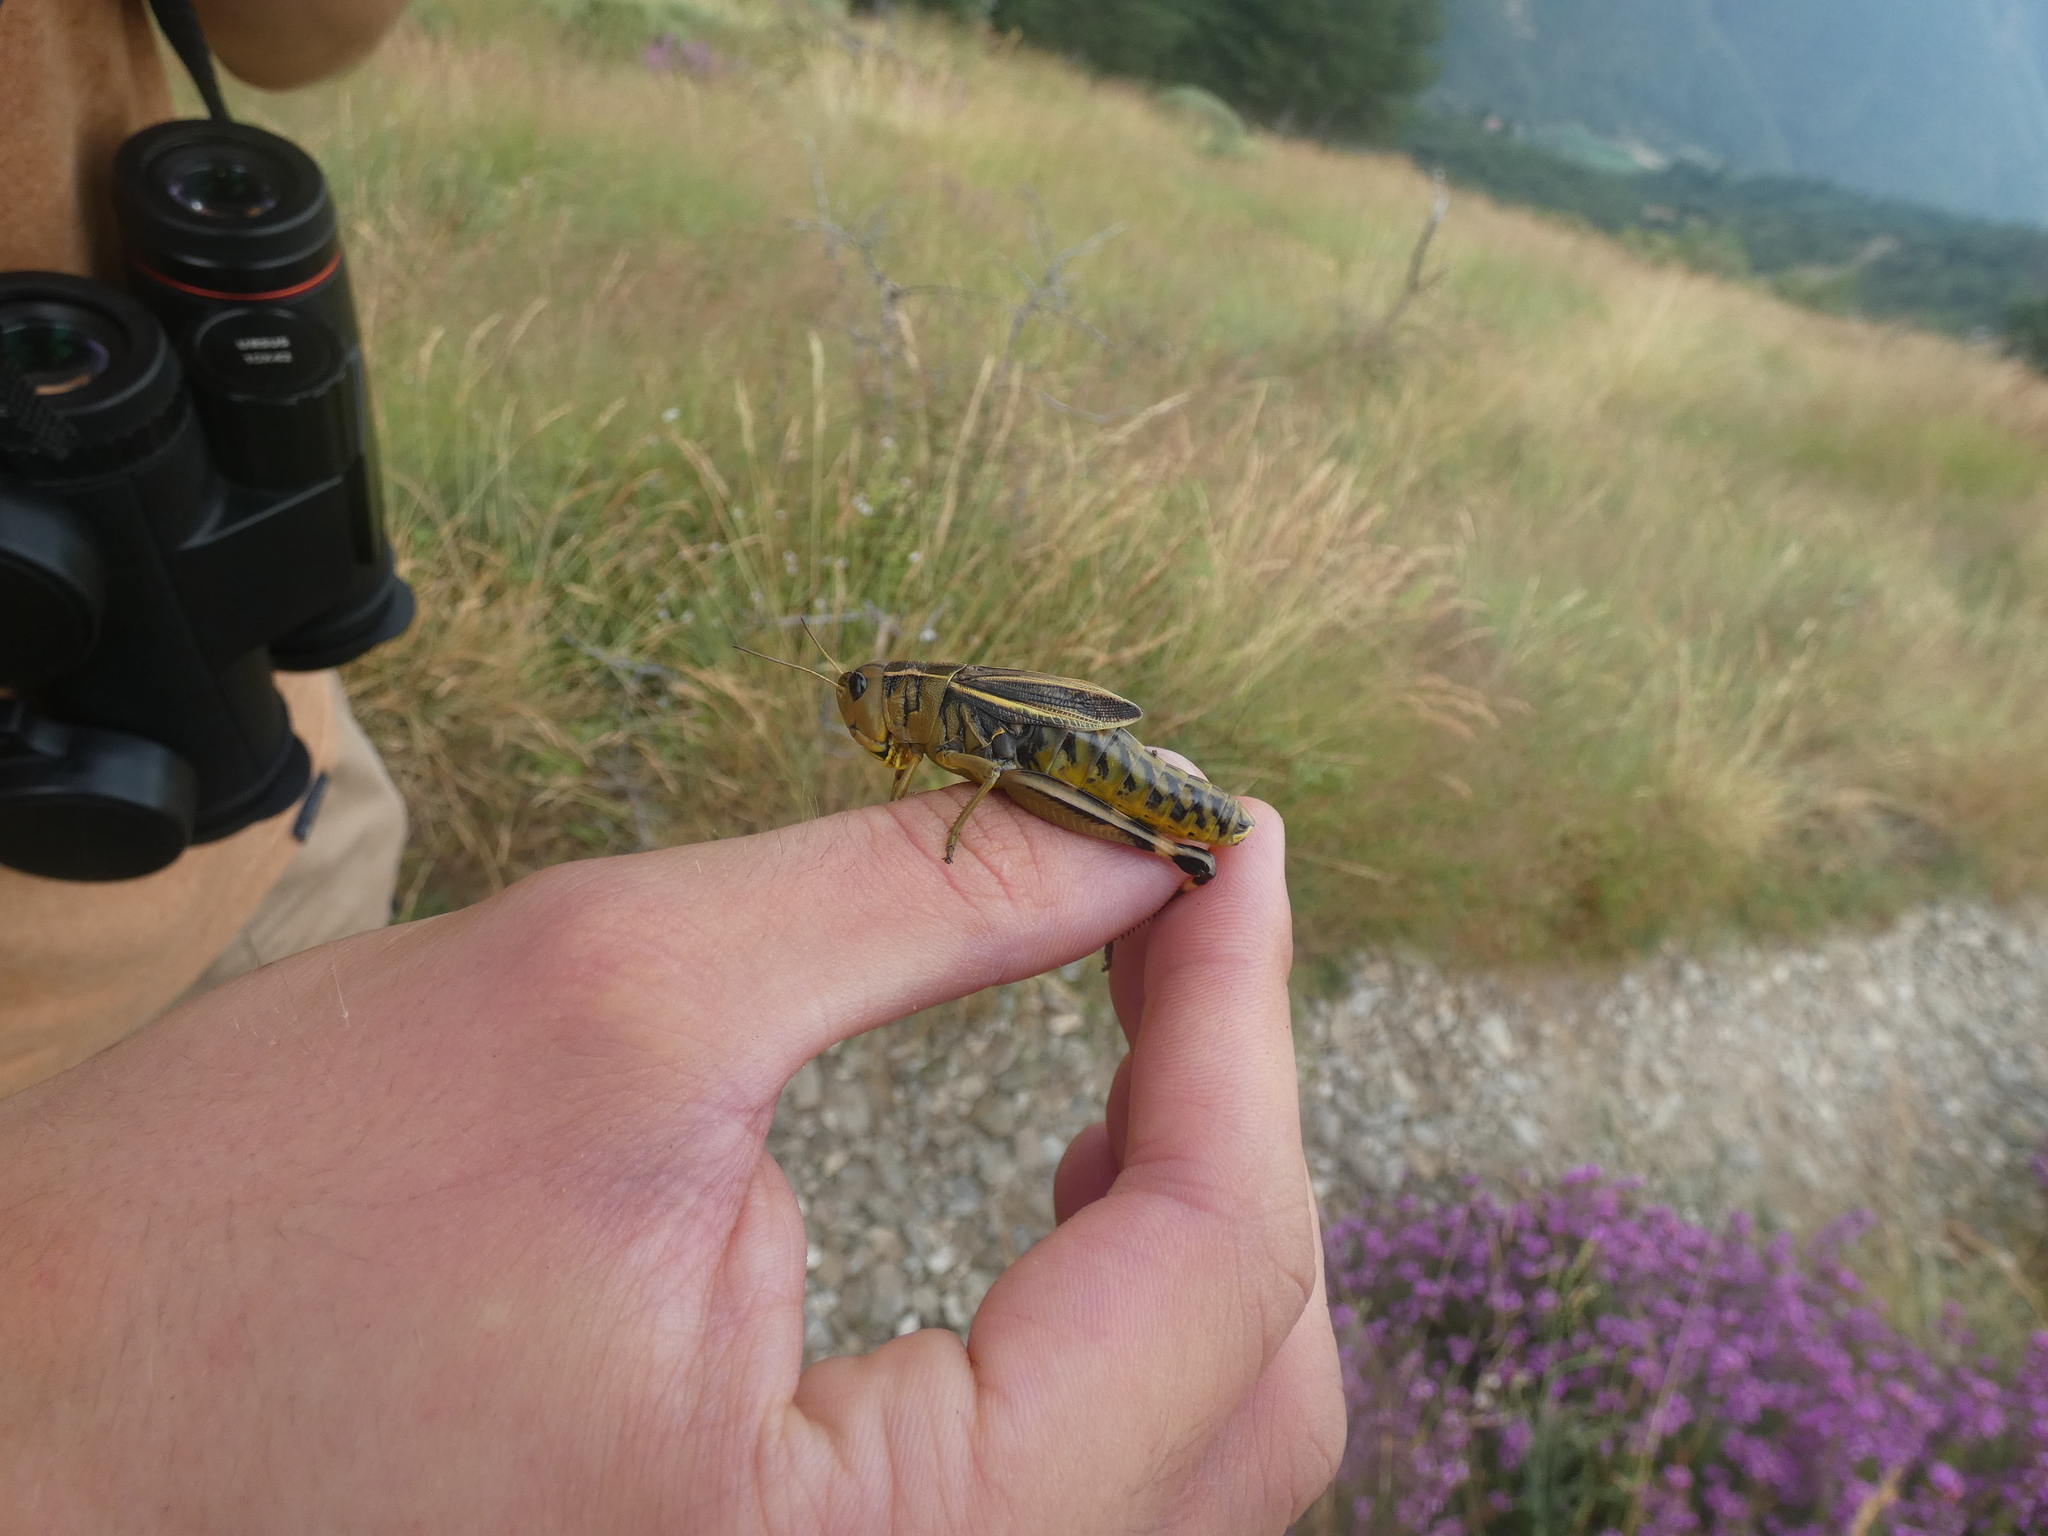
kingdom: Animalia
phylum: Arthropoda
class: Insecta
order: Orthoptera
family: Acrididae
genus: Arcyptera
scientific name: Arcyptera fusca
